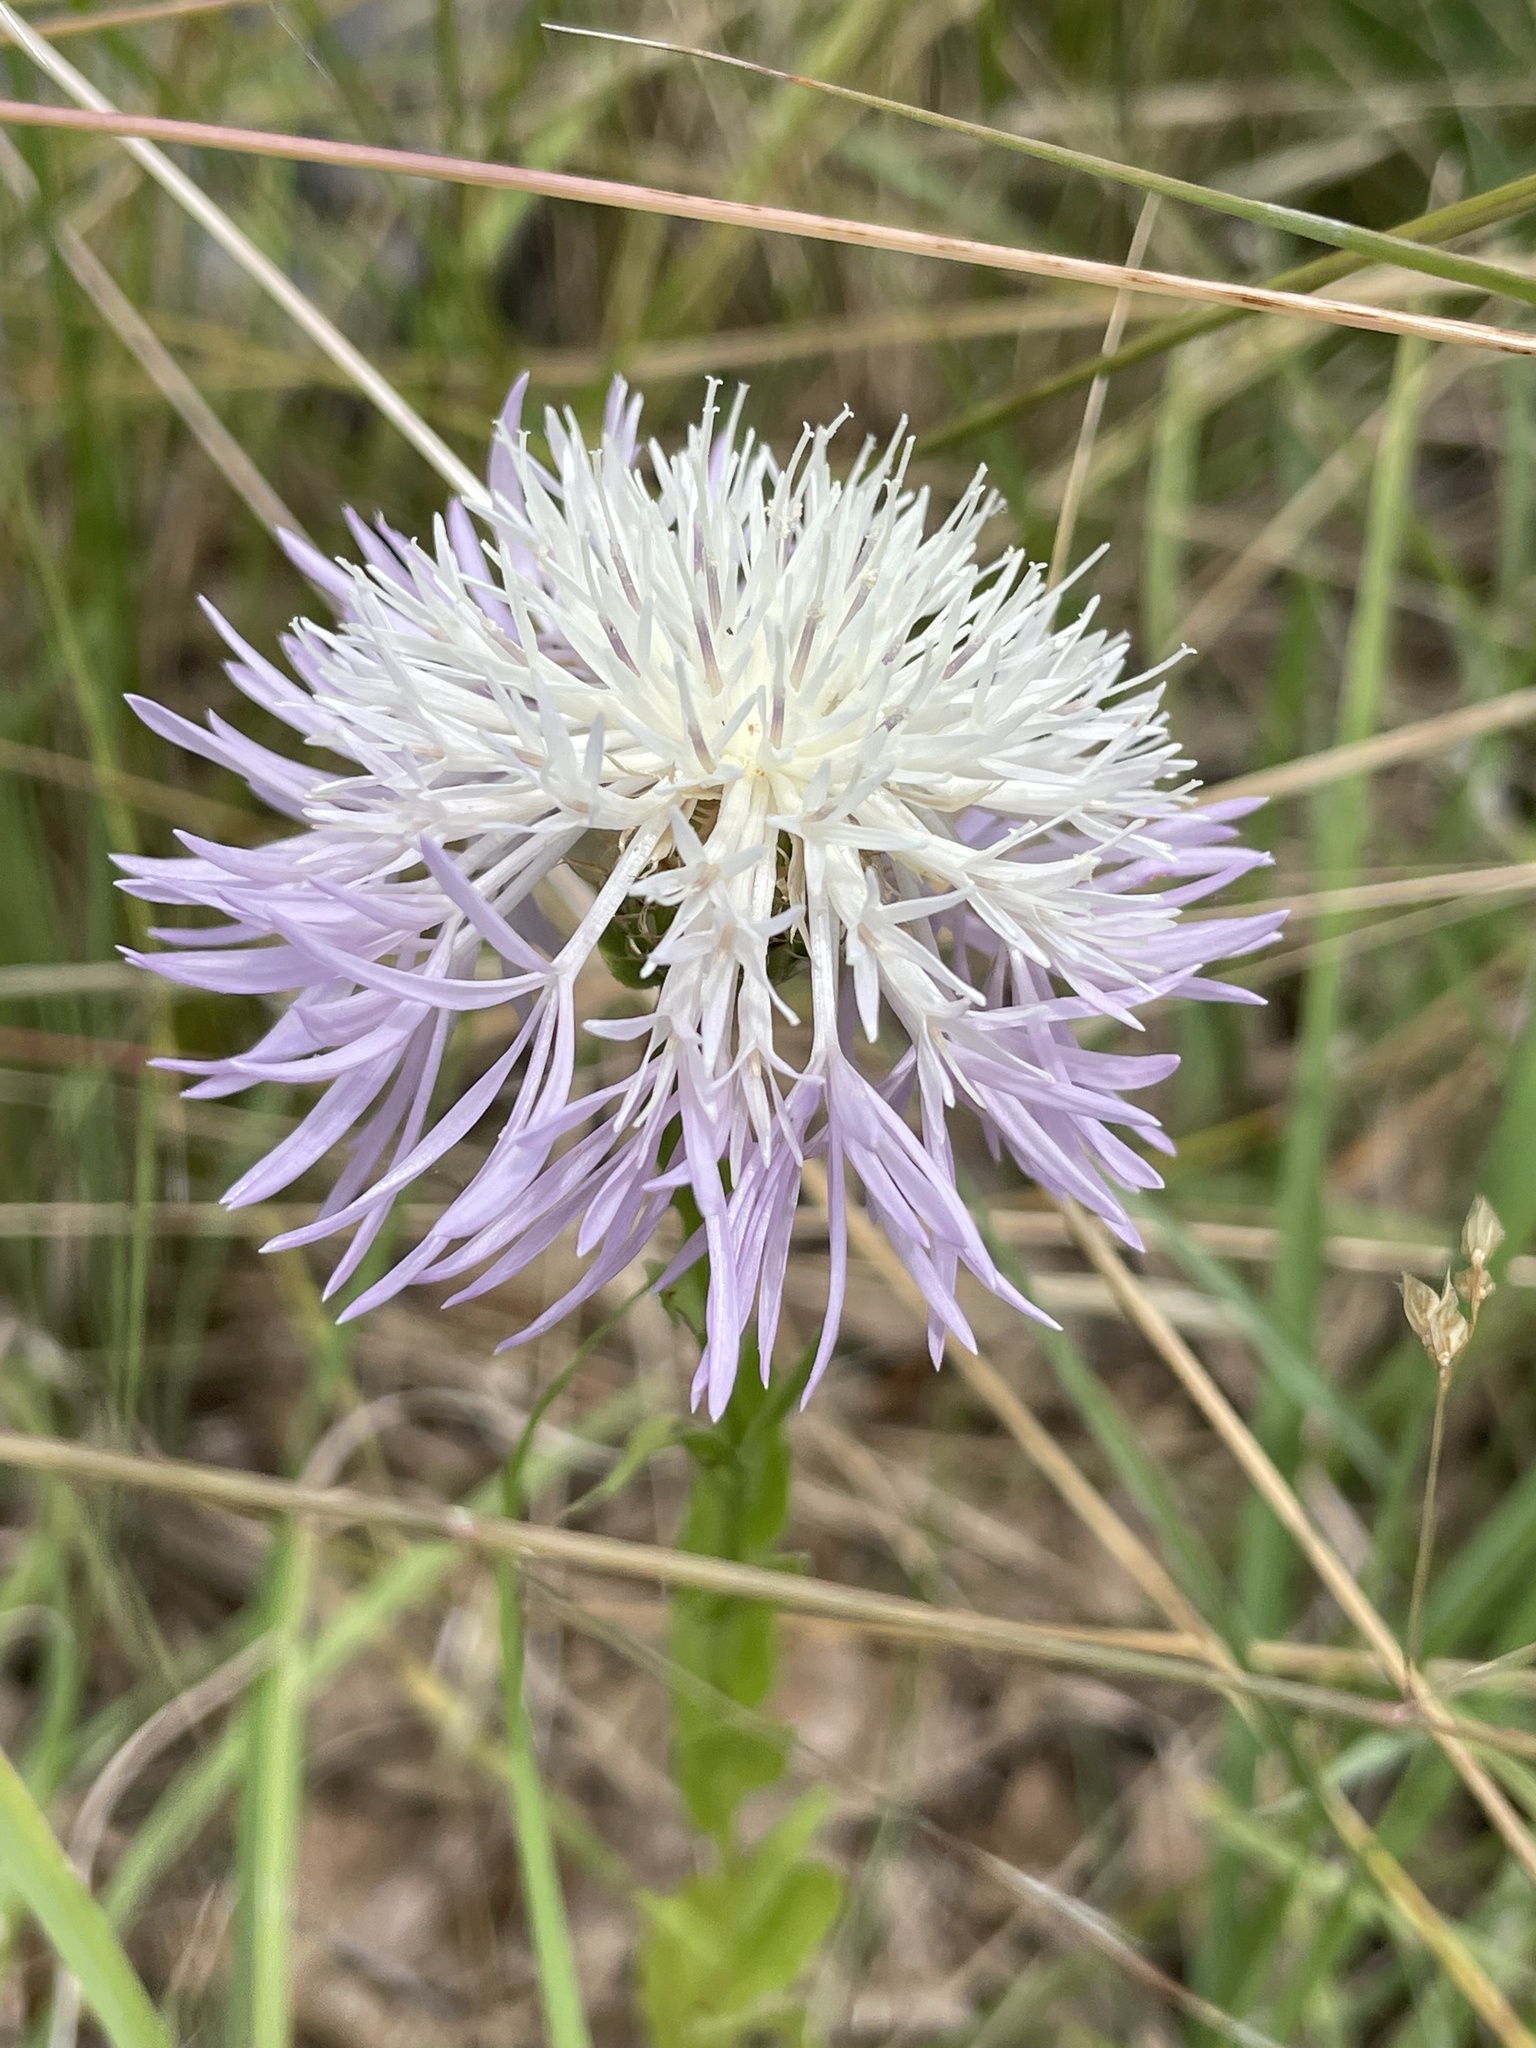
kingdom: Plantae
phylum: Tracheophyta
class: Magnoliopsida
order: Asterales
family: Asteraceae
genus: Plectocephalus
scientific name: Plectocephalus americanus
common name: American basket-flower
